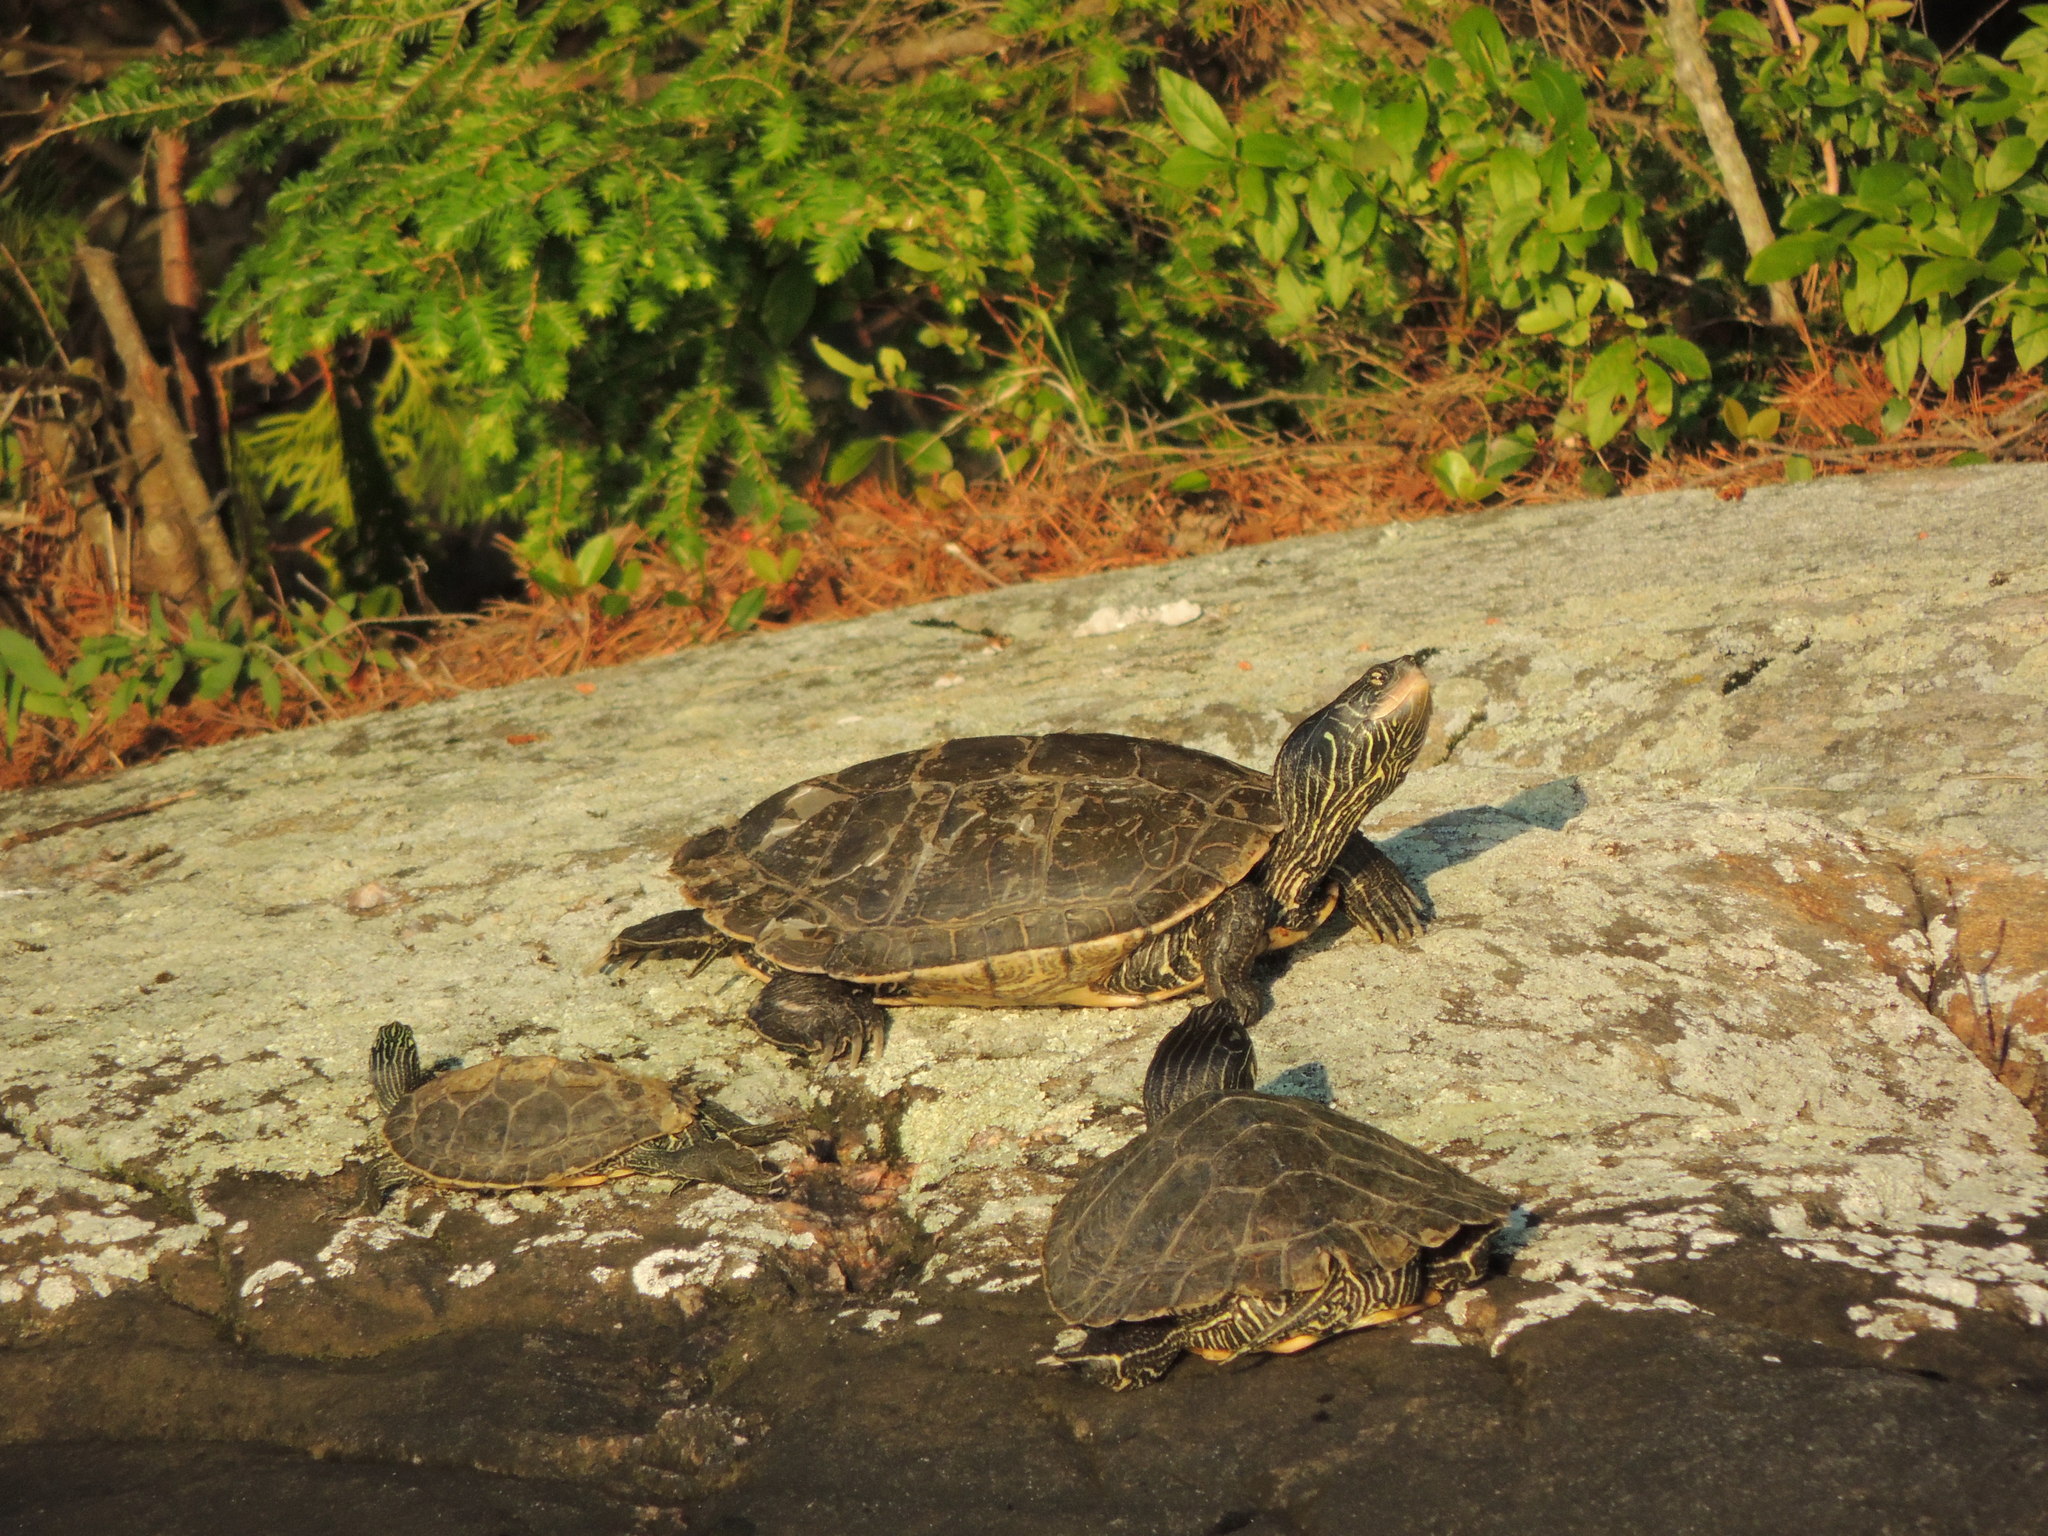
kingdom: Animalia
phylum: Chordata
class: Testudines
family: Emydidae
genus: Graptemys
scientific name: Graptemys geographica
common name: Common map turtle
